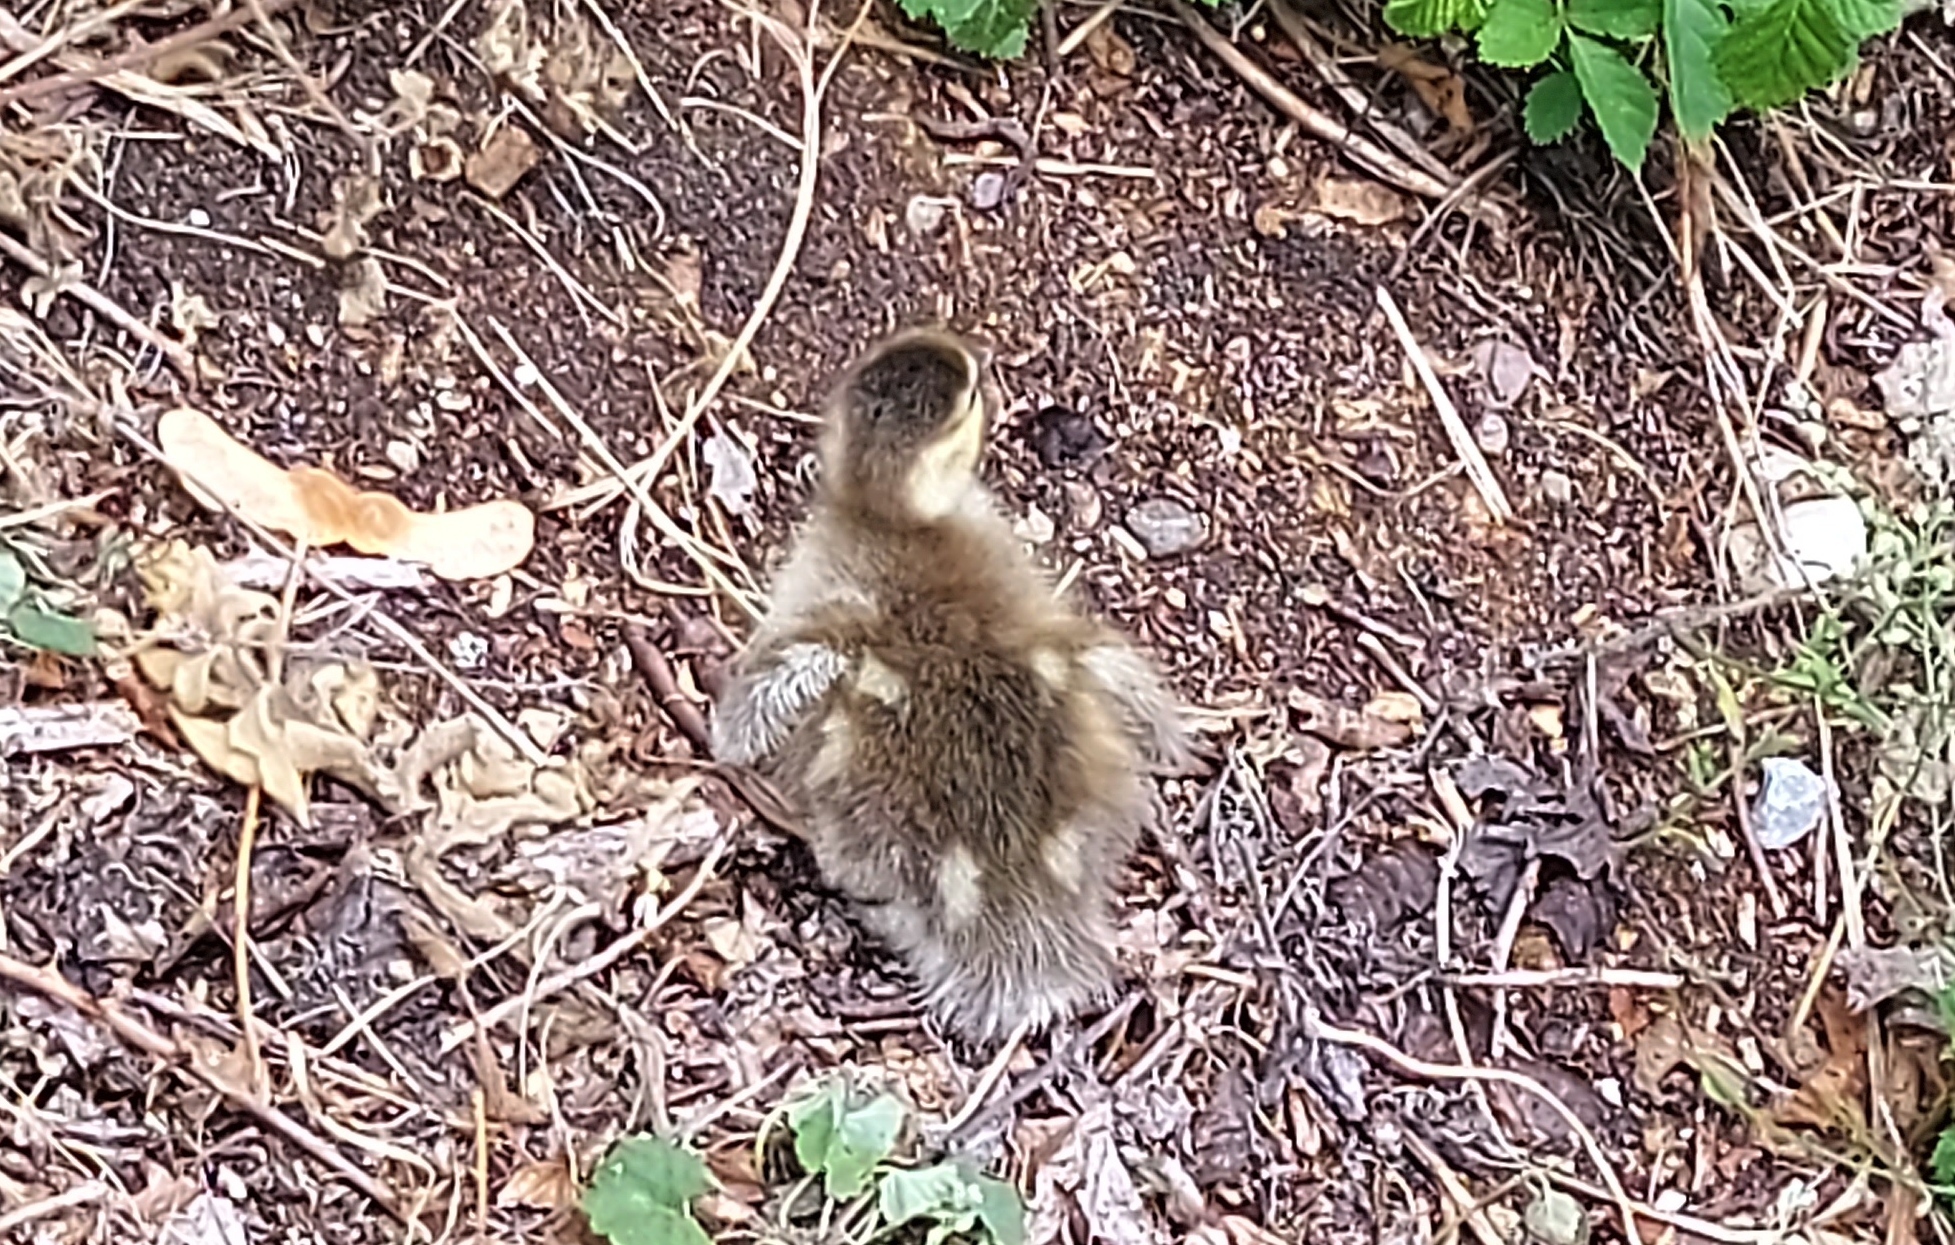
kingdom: Animalia
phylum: Chordata
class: Aves
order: Anseriformes
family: Anatidae
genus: Anas
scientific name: Anas platyrhynchos
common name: Mallard
